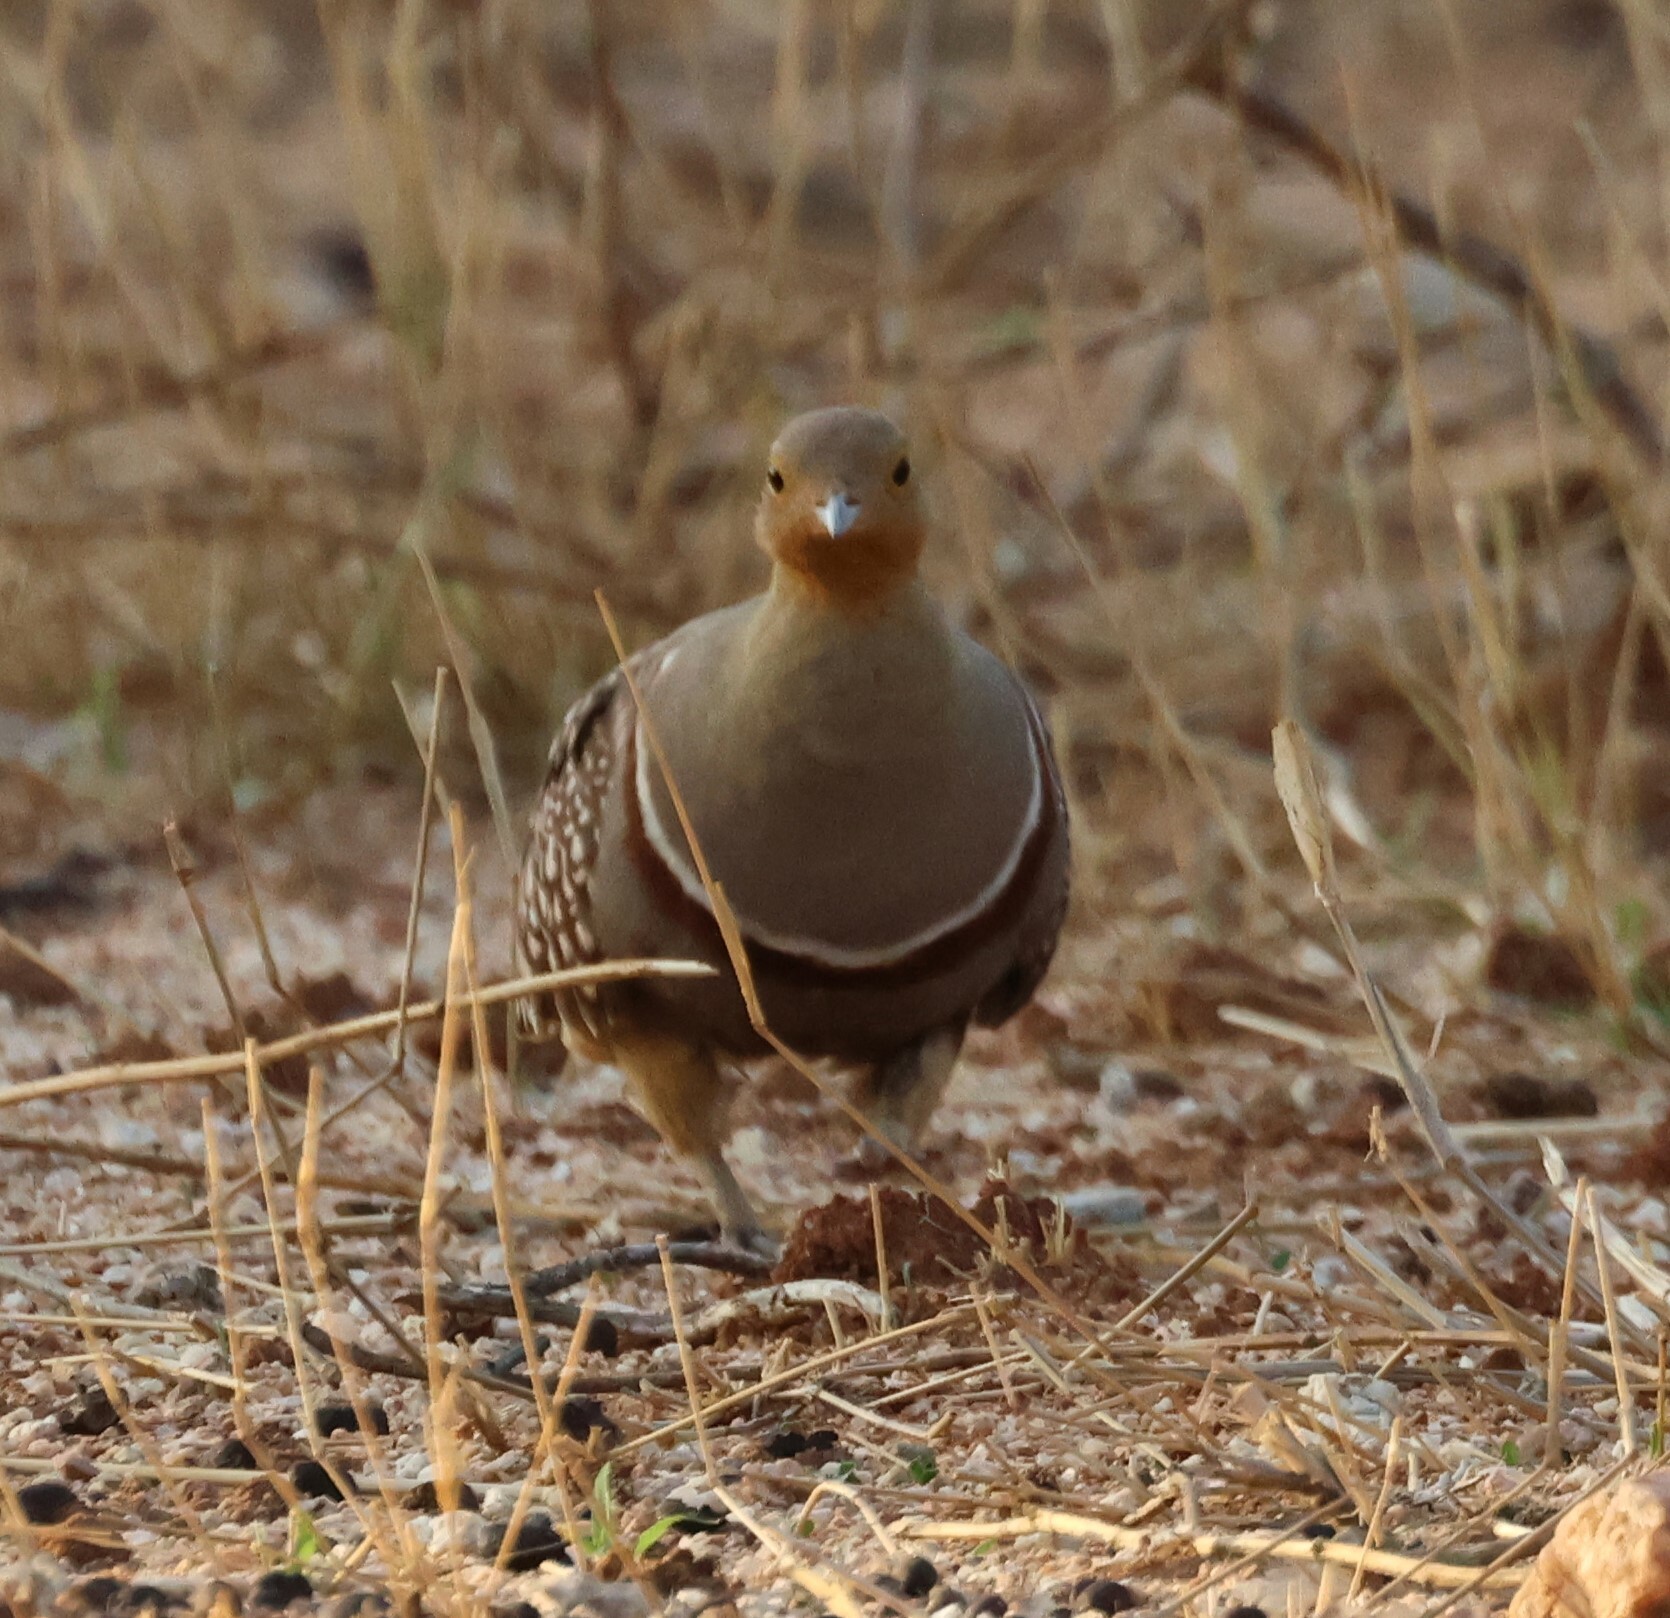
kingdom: Animalia
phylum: Chordata
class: Aves
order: Pteroclidiformes
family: Pteroclididae
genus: Pterocles
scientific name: Pterocles namaqua
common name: Namaqua sandgrouse
